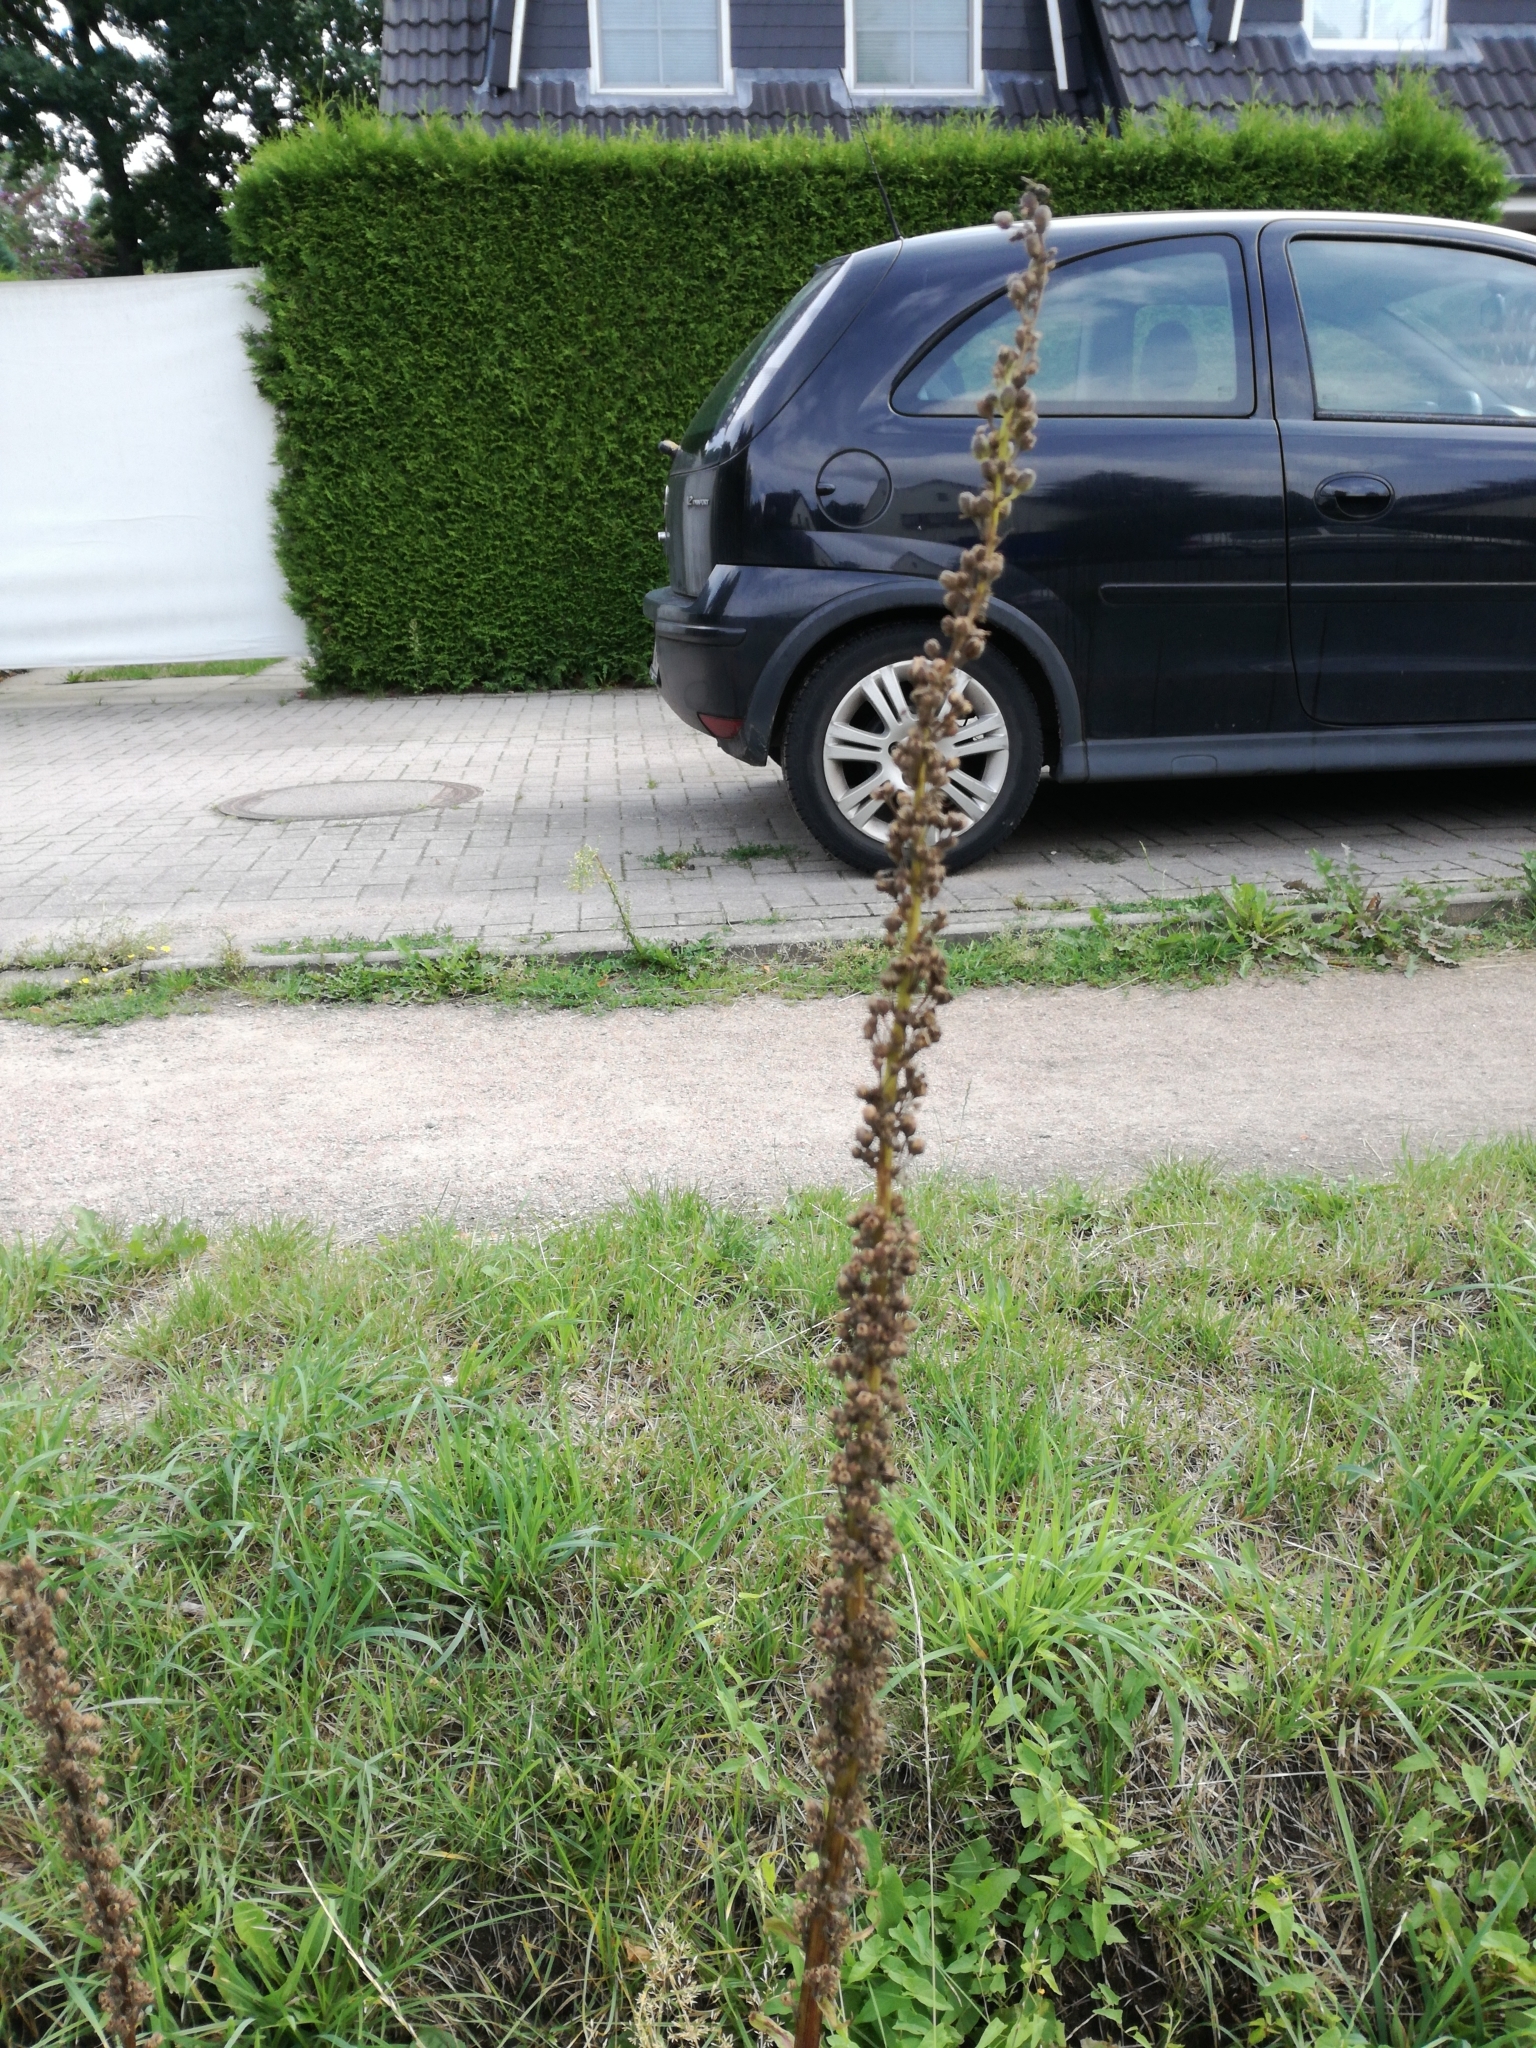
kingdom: Plantae
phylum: Tracheophyta
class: Magnoliopsida
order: Lamiales
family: Scrophulariaceae
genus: Verbascum
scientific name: Verbascum nigrum
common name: Dark mullein
